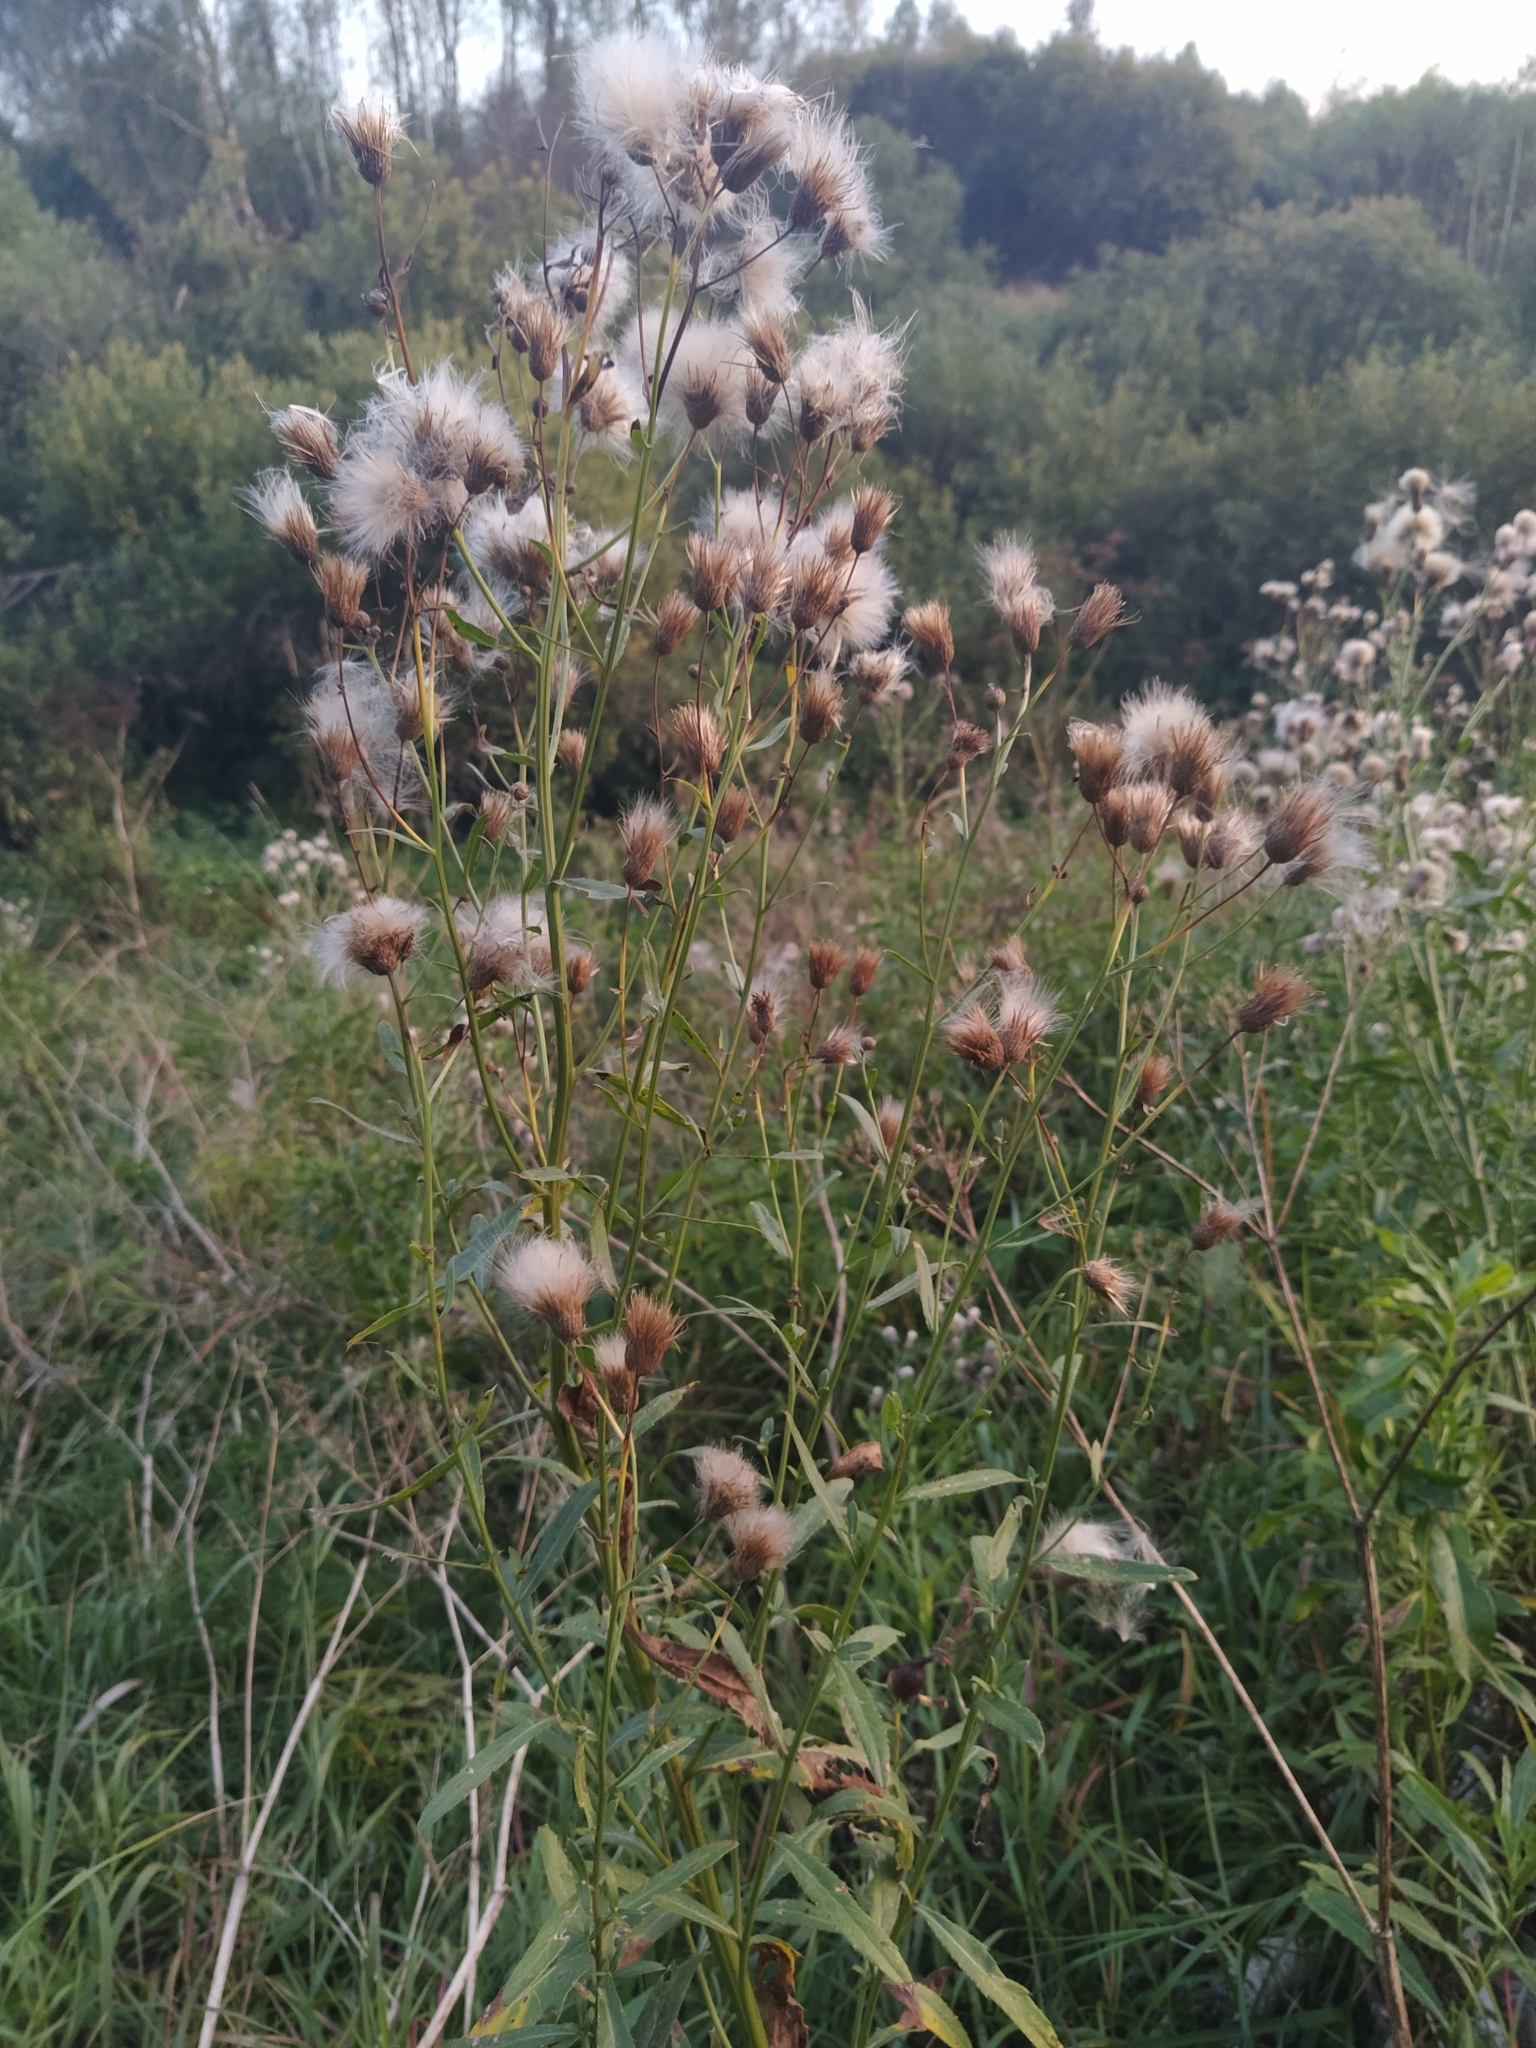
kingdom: Plantae
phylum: Tracheophyta
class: Magnoliopsida
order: Asterales
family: Asteraceae
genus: Cirsium
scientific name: Cirsium arvense
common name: Creeping thistle
